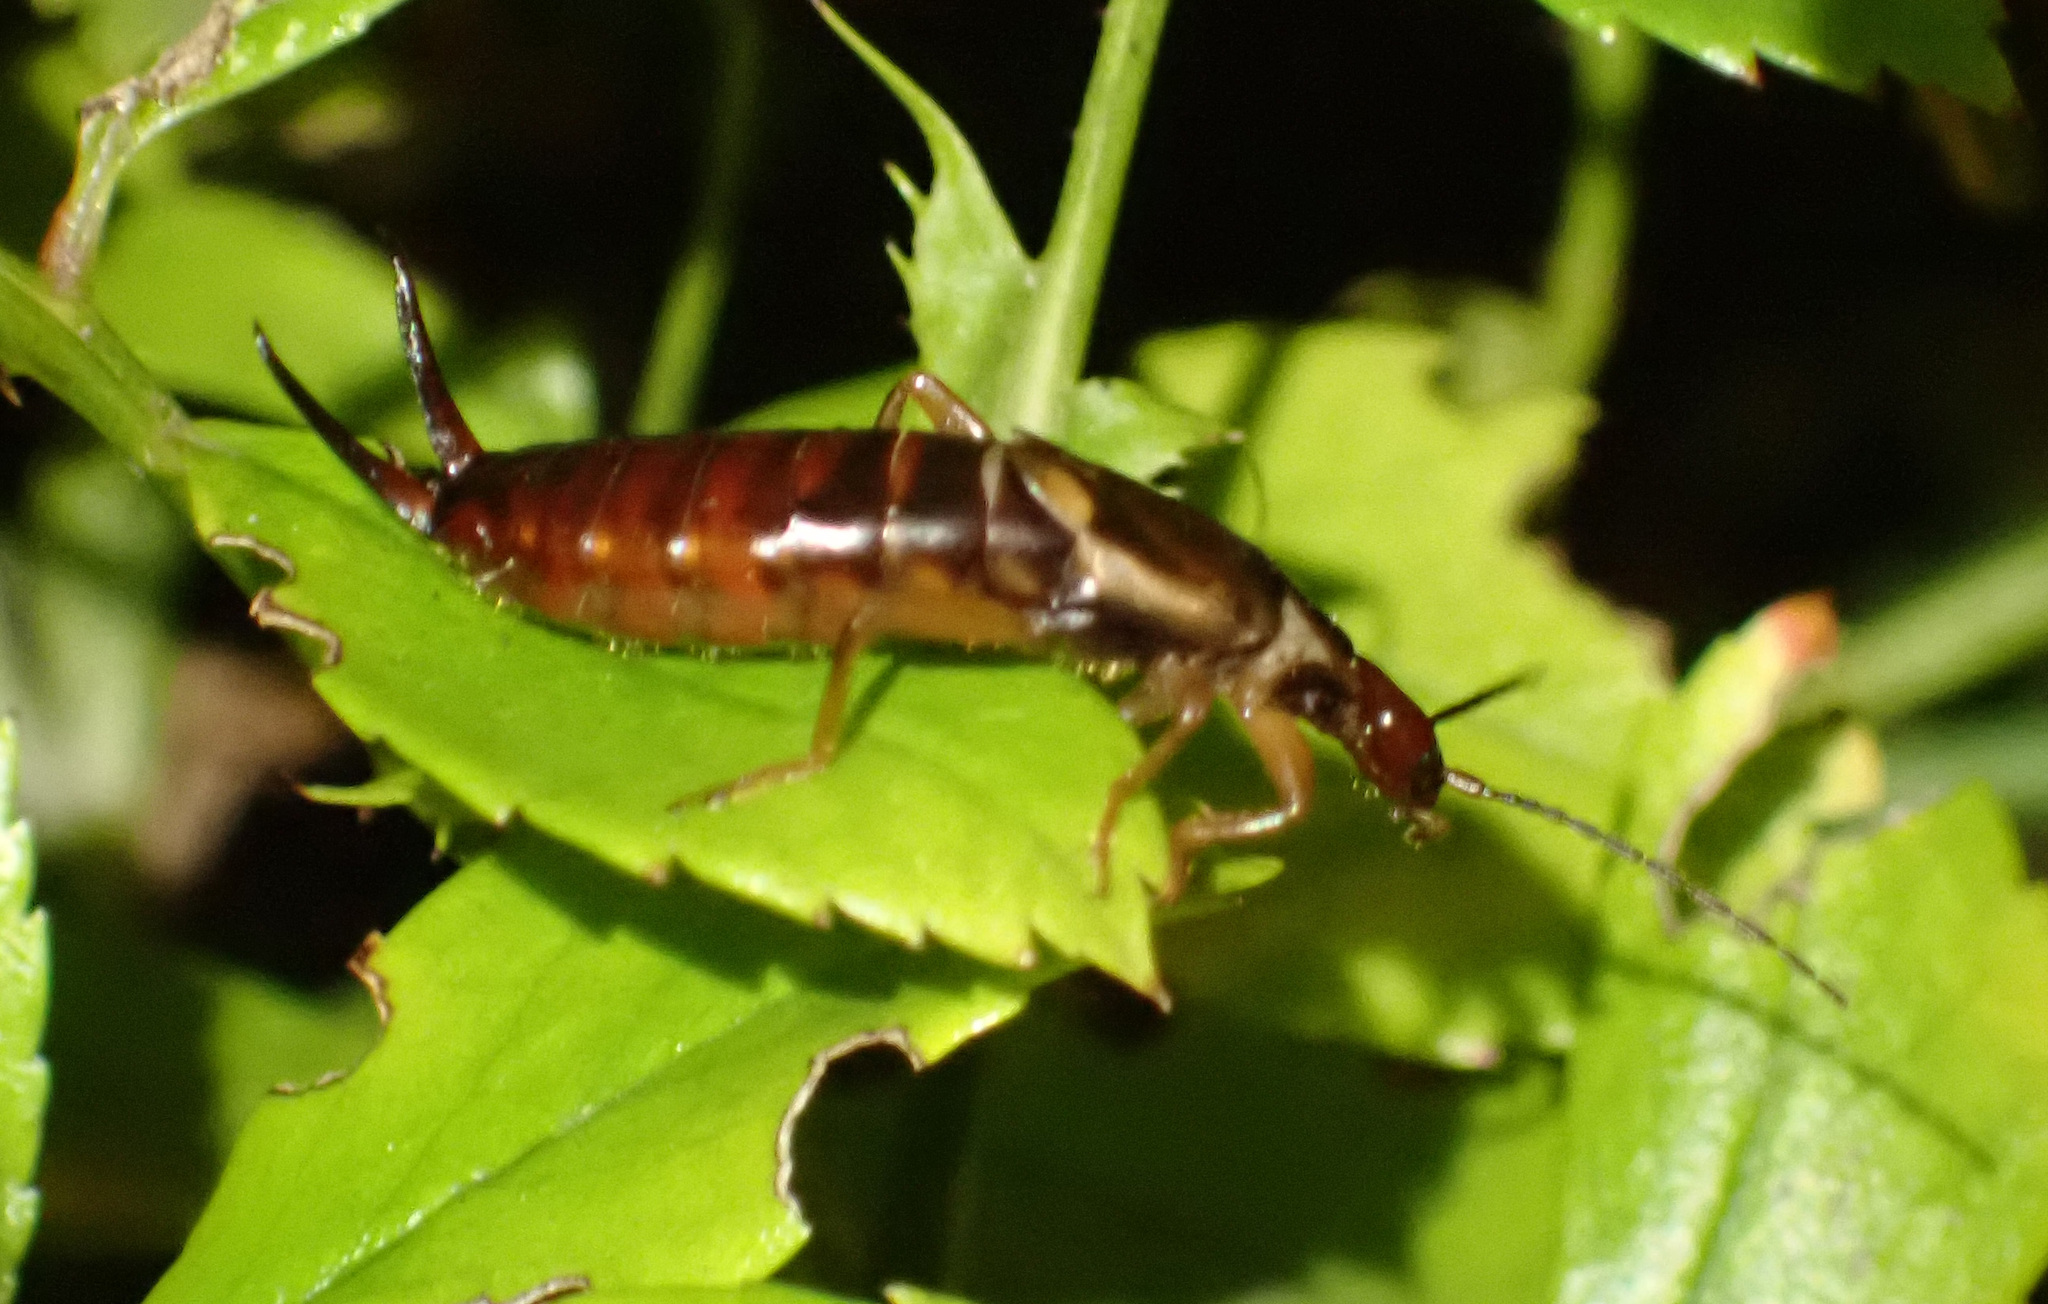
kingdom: Animalia
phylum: Arthropoda
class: Insecta
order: Dermaptera
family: Forficulidae
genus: Forficula
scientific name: Forficula auricularia
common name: European earwig
